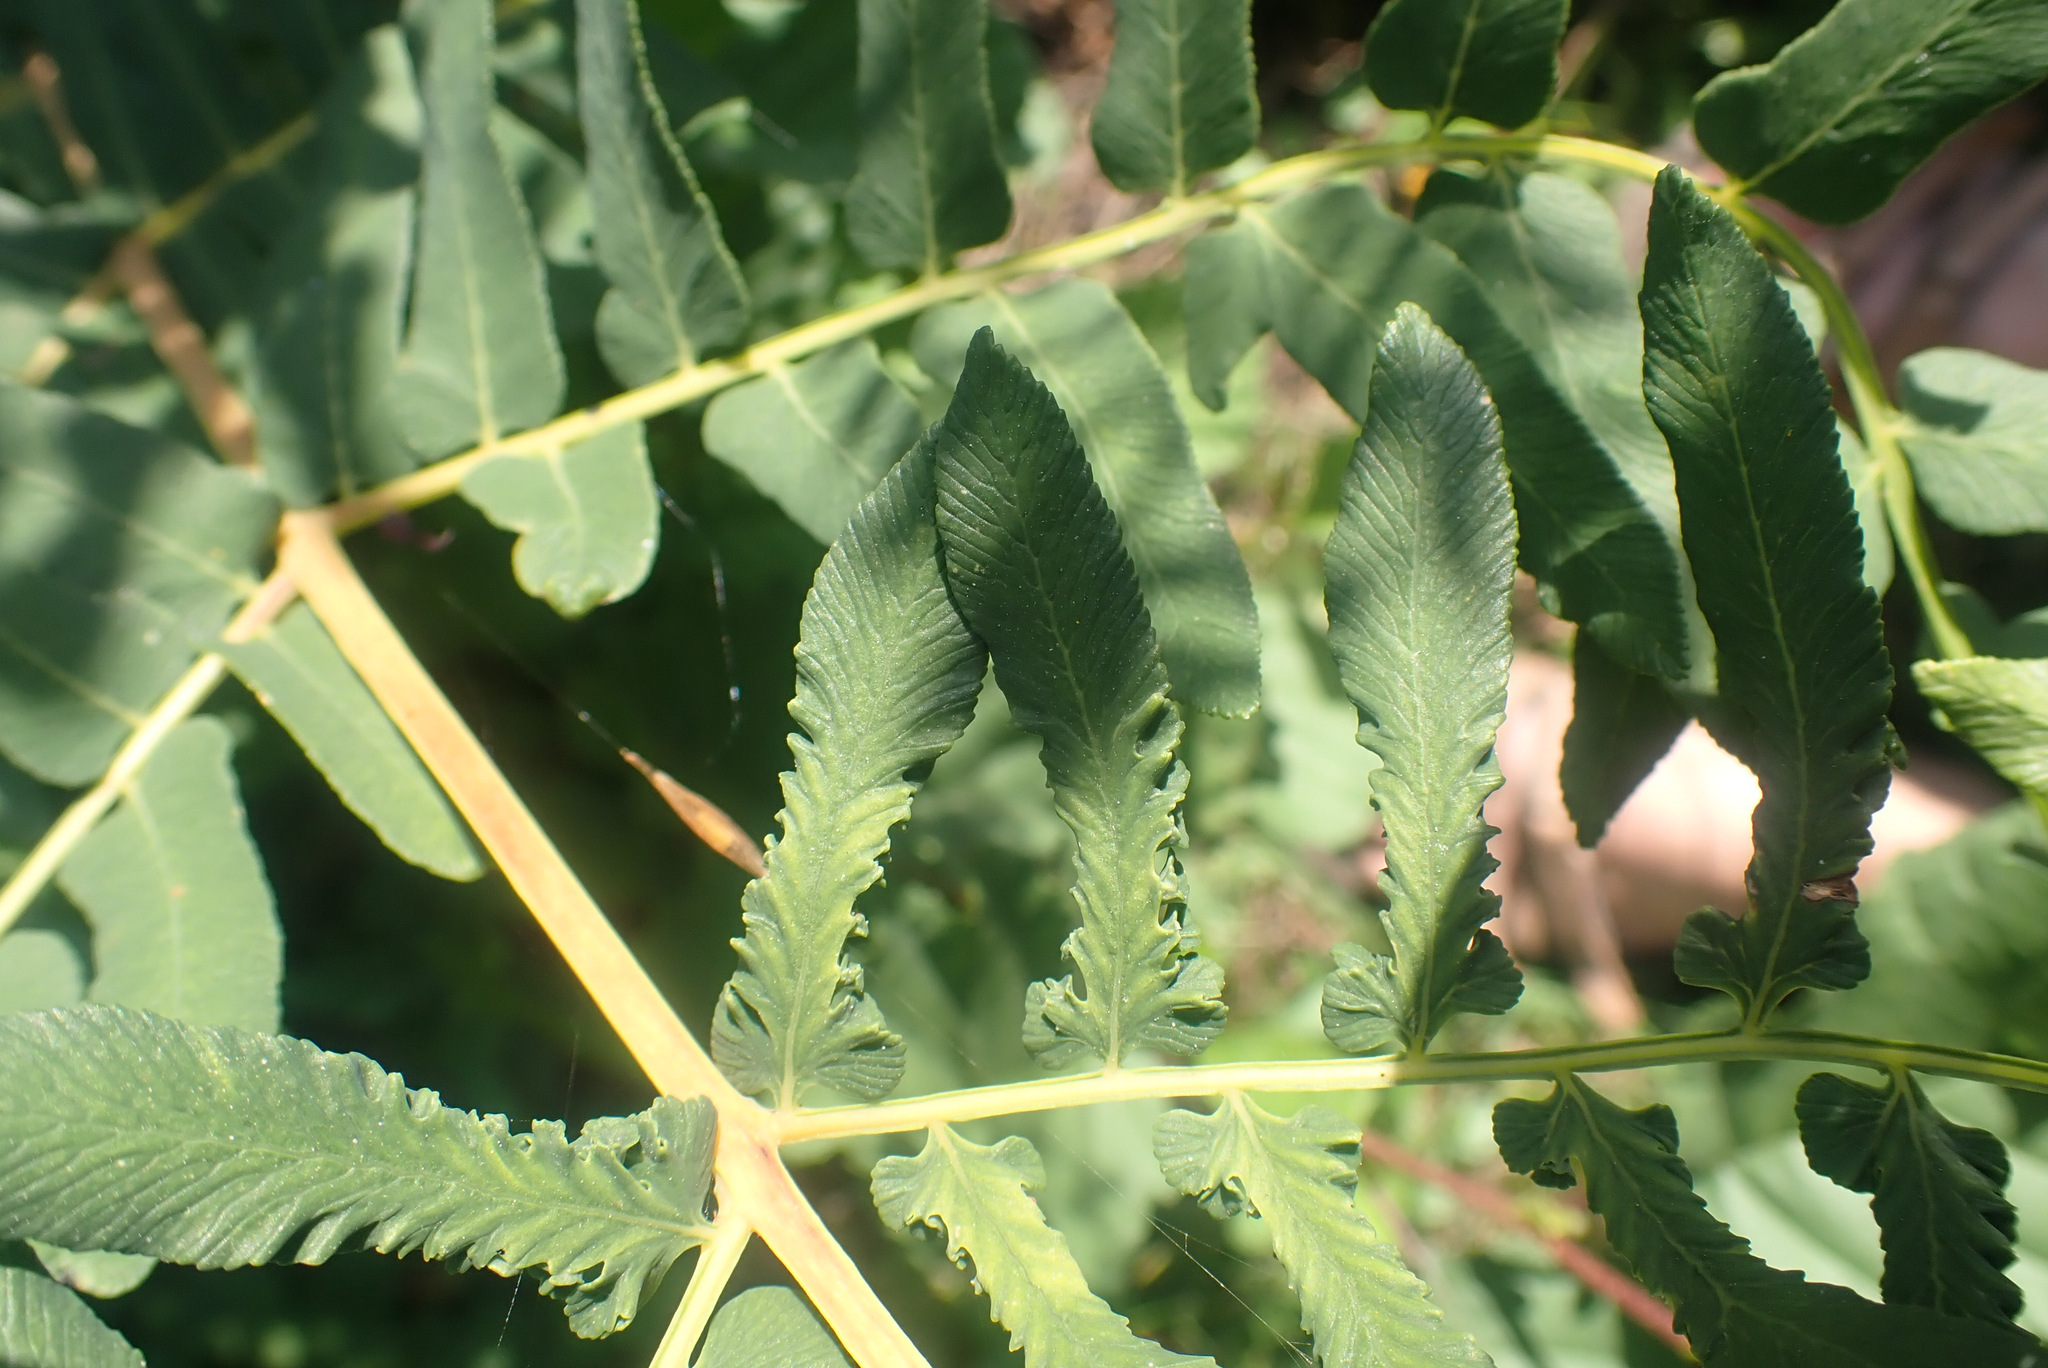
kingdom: Plantae
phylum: Tracheophyta
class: Polypodiopsida
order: Osmundales
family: Osmundaceae
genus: Osmunda
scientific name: Osmunda regalis
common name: Royal fern
